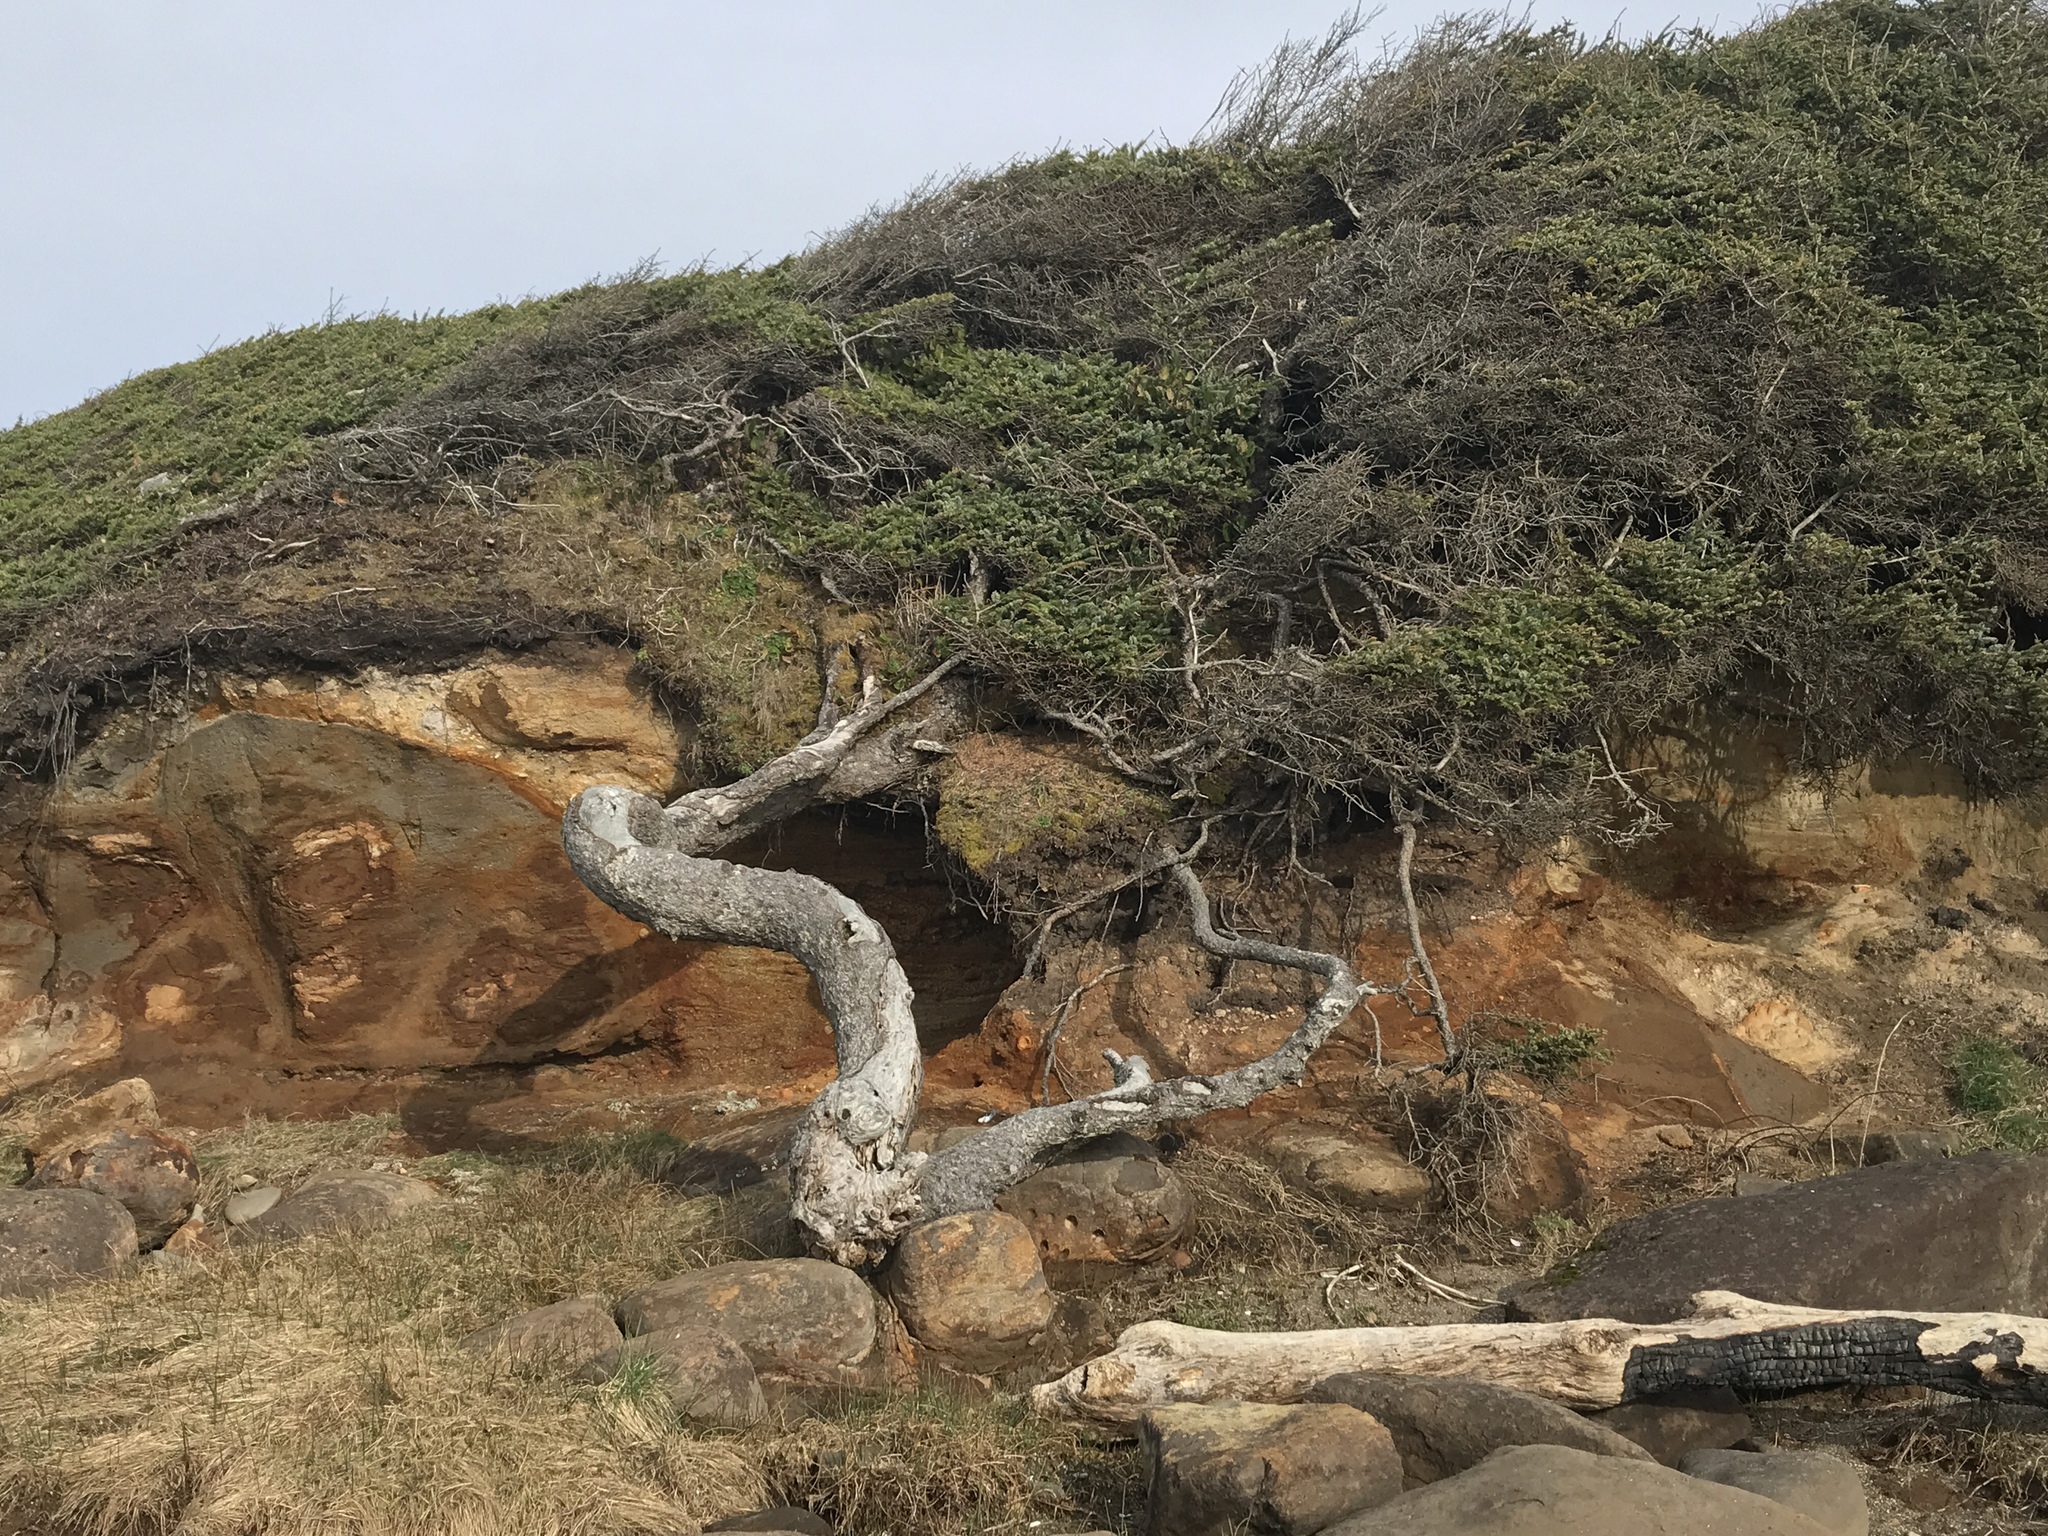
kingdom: Plantae
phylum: Tracheophyta
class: Pinopsida
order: Pinales
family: Pinaceae
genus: Picea
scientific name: Picea sitchensis
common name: Sitka spruce
